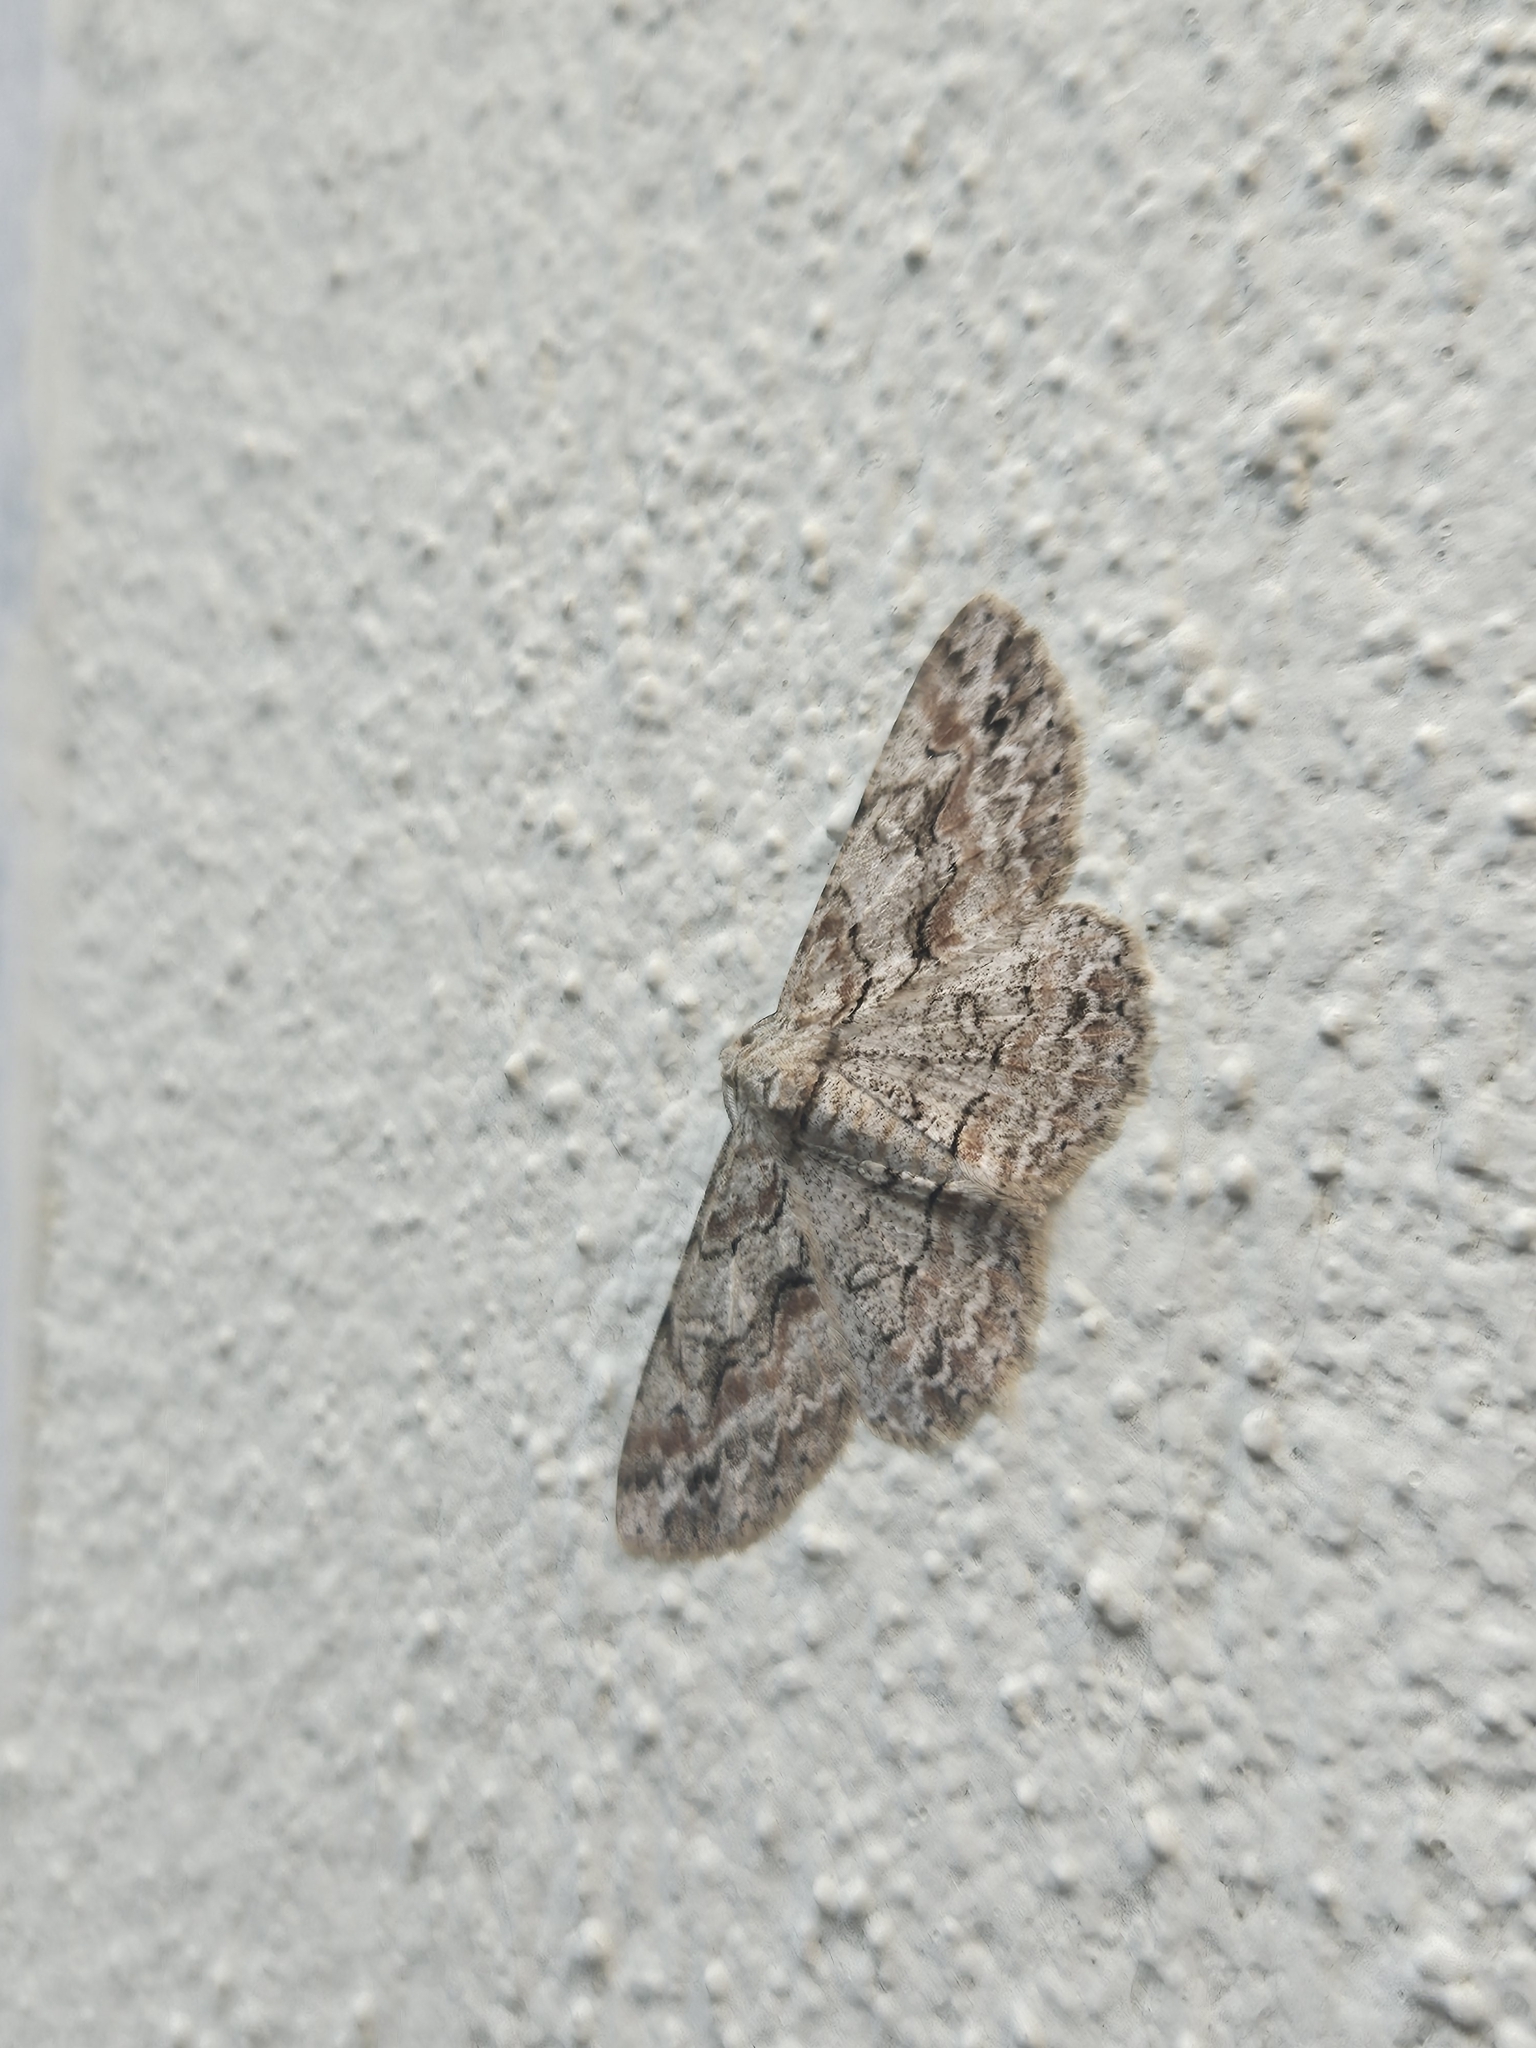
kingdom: Animalia
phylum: Arthropoda
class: Insecta
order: Lepidoptera
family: Geometridae
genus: Iridopsis
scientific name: Iridopsis defectaria
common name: Brown-shaded gray
